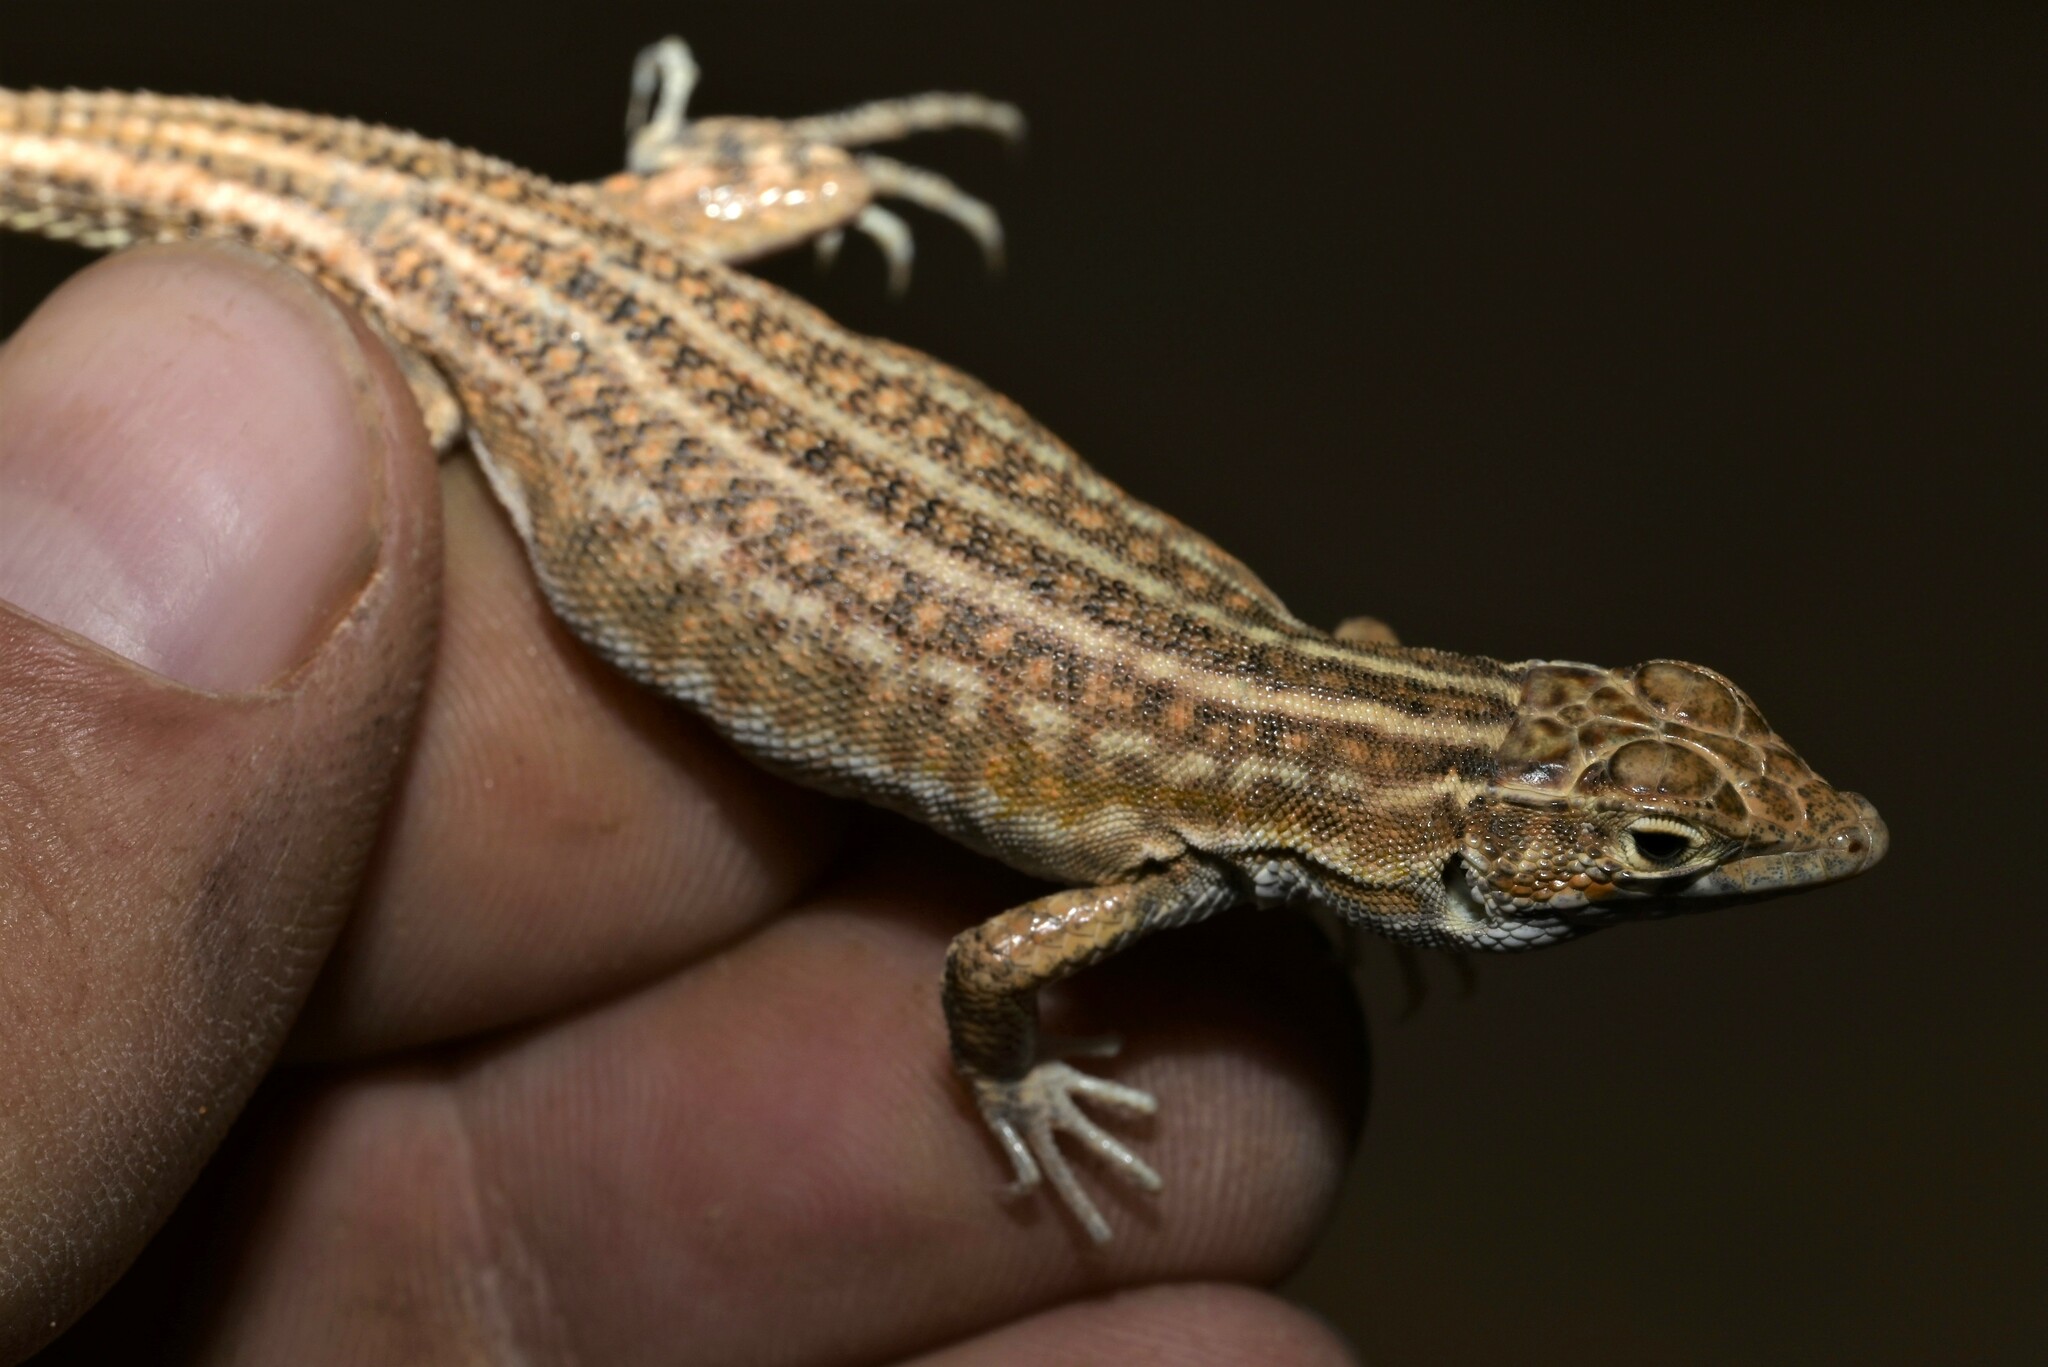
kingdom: Animalia
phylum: Chordata
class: Squamata
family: Lacertidae
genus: Acanthodactylus
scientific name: Acanthodactylus opheodurus
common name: Arnold's fringe-fingered lizard
